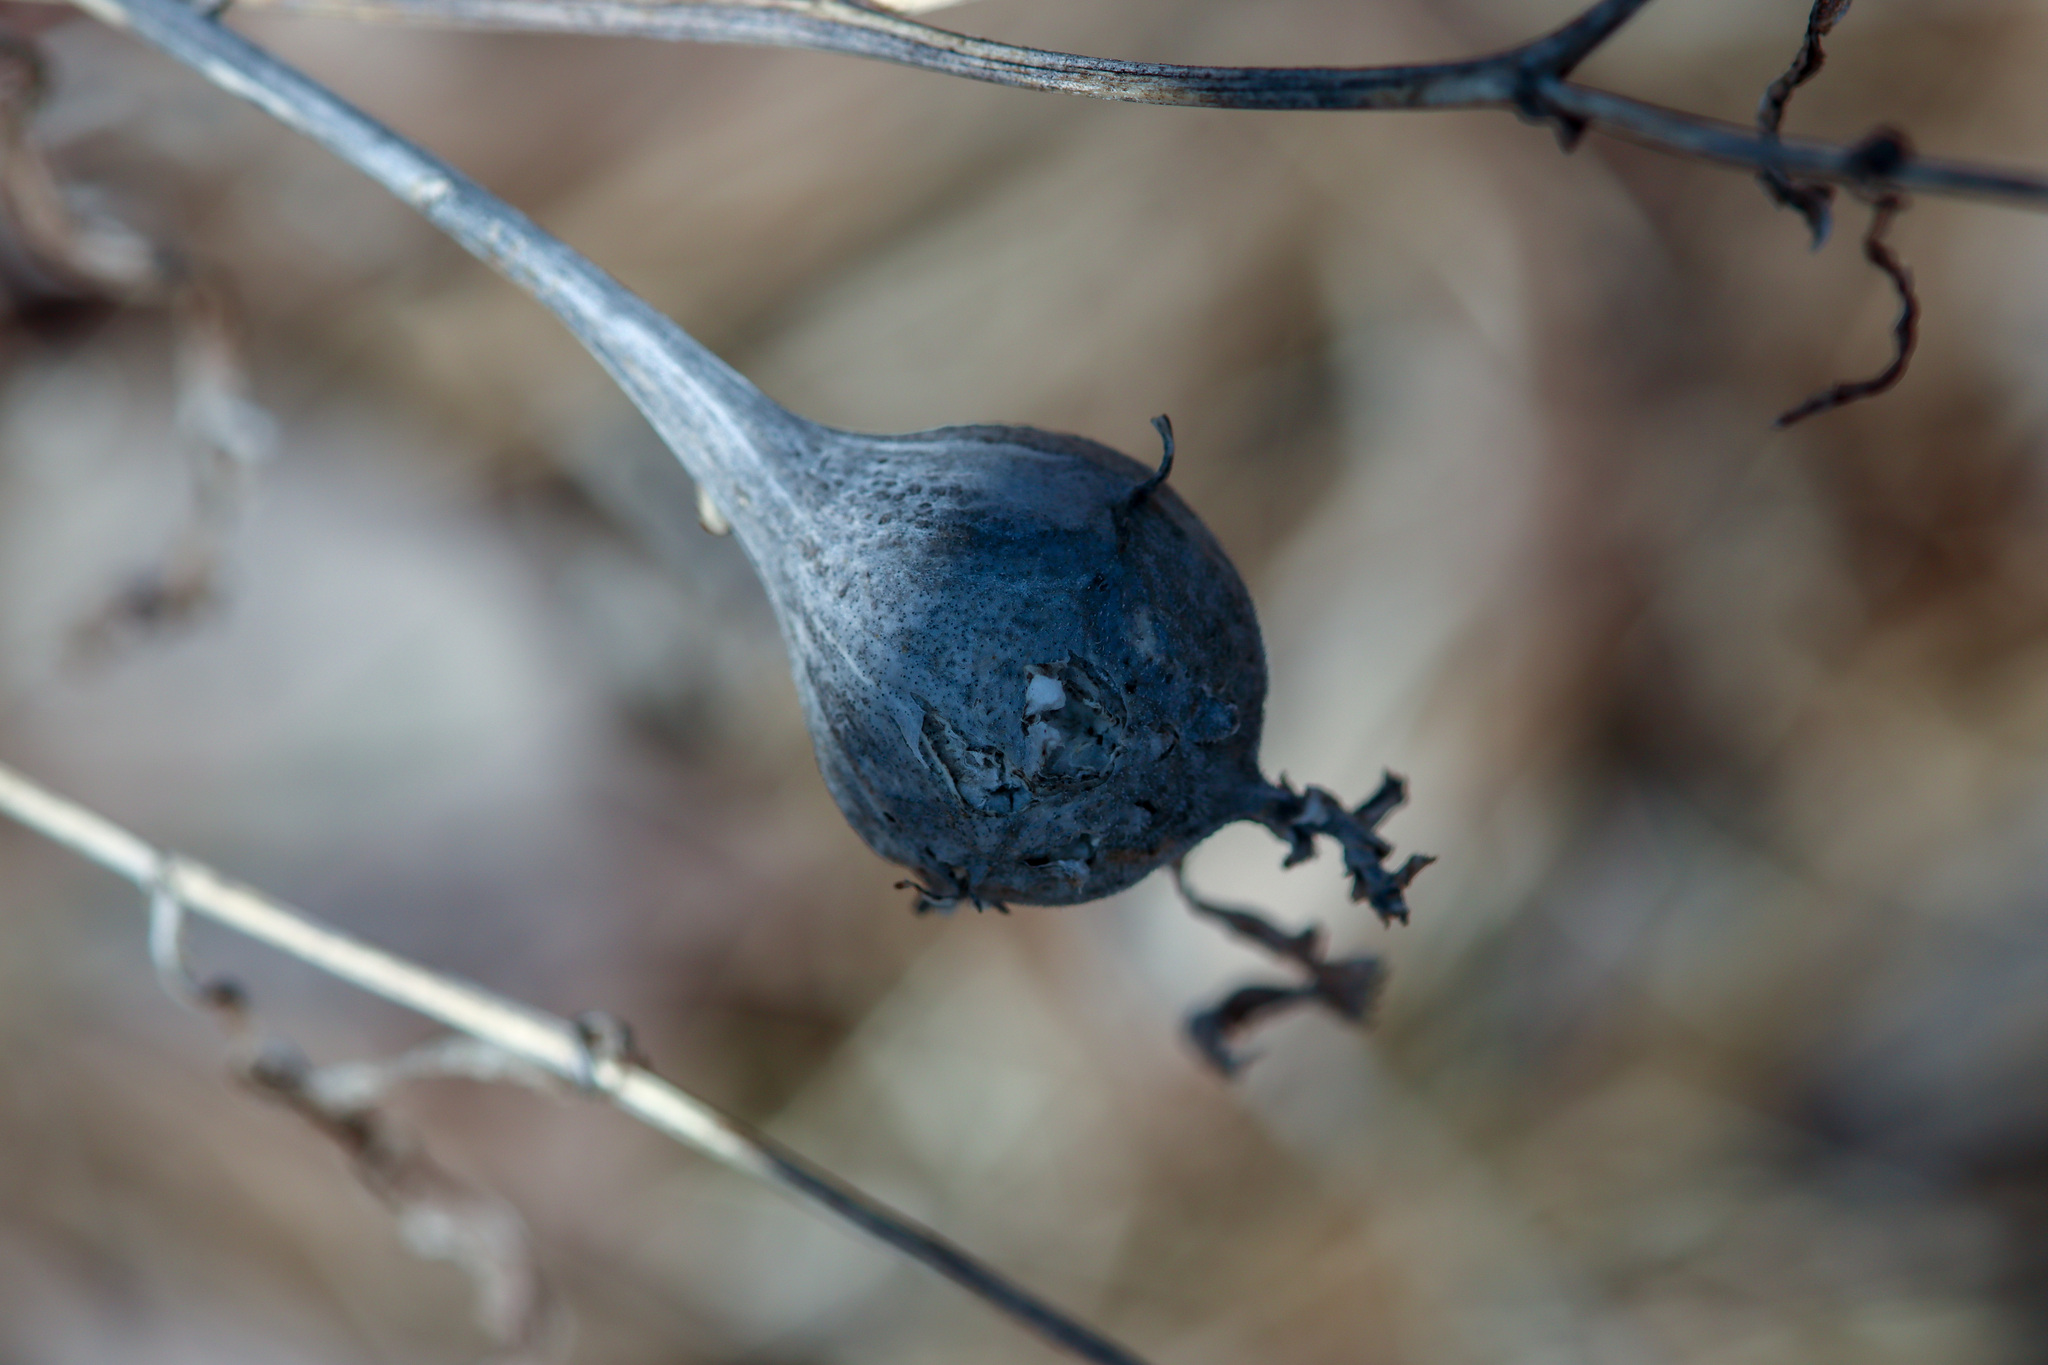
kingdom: Animalia
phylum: Arthropoda
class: Insecta
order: Diptera
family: Tephritidae
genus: Eurosta
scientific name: Eurosta solidaginis
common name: Goldenrod gall fly
